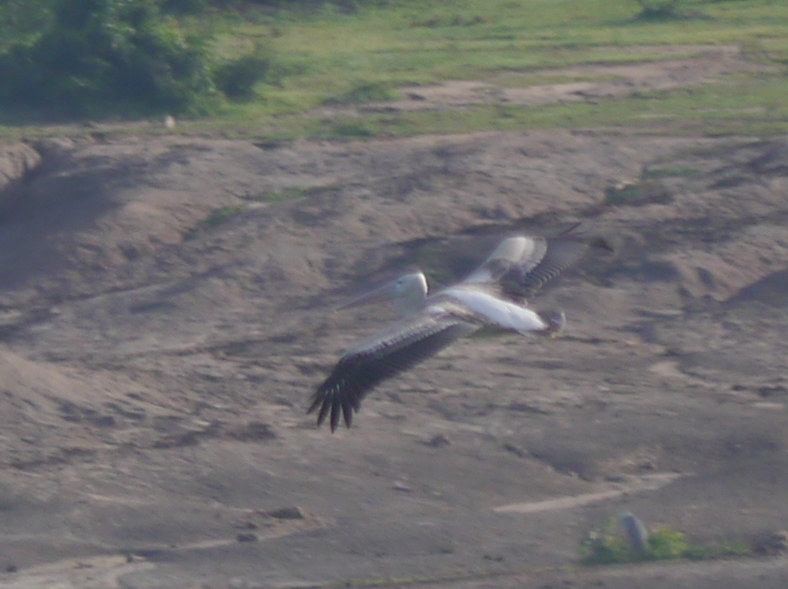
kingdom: Animalia
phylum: Chordata
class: Aves
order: Pelecaniformes
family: Pelecanidae
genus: Pelecanus
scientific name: Pelecanus rufescens
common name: Pink-backed pelican
